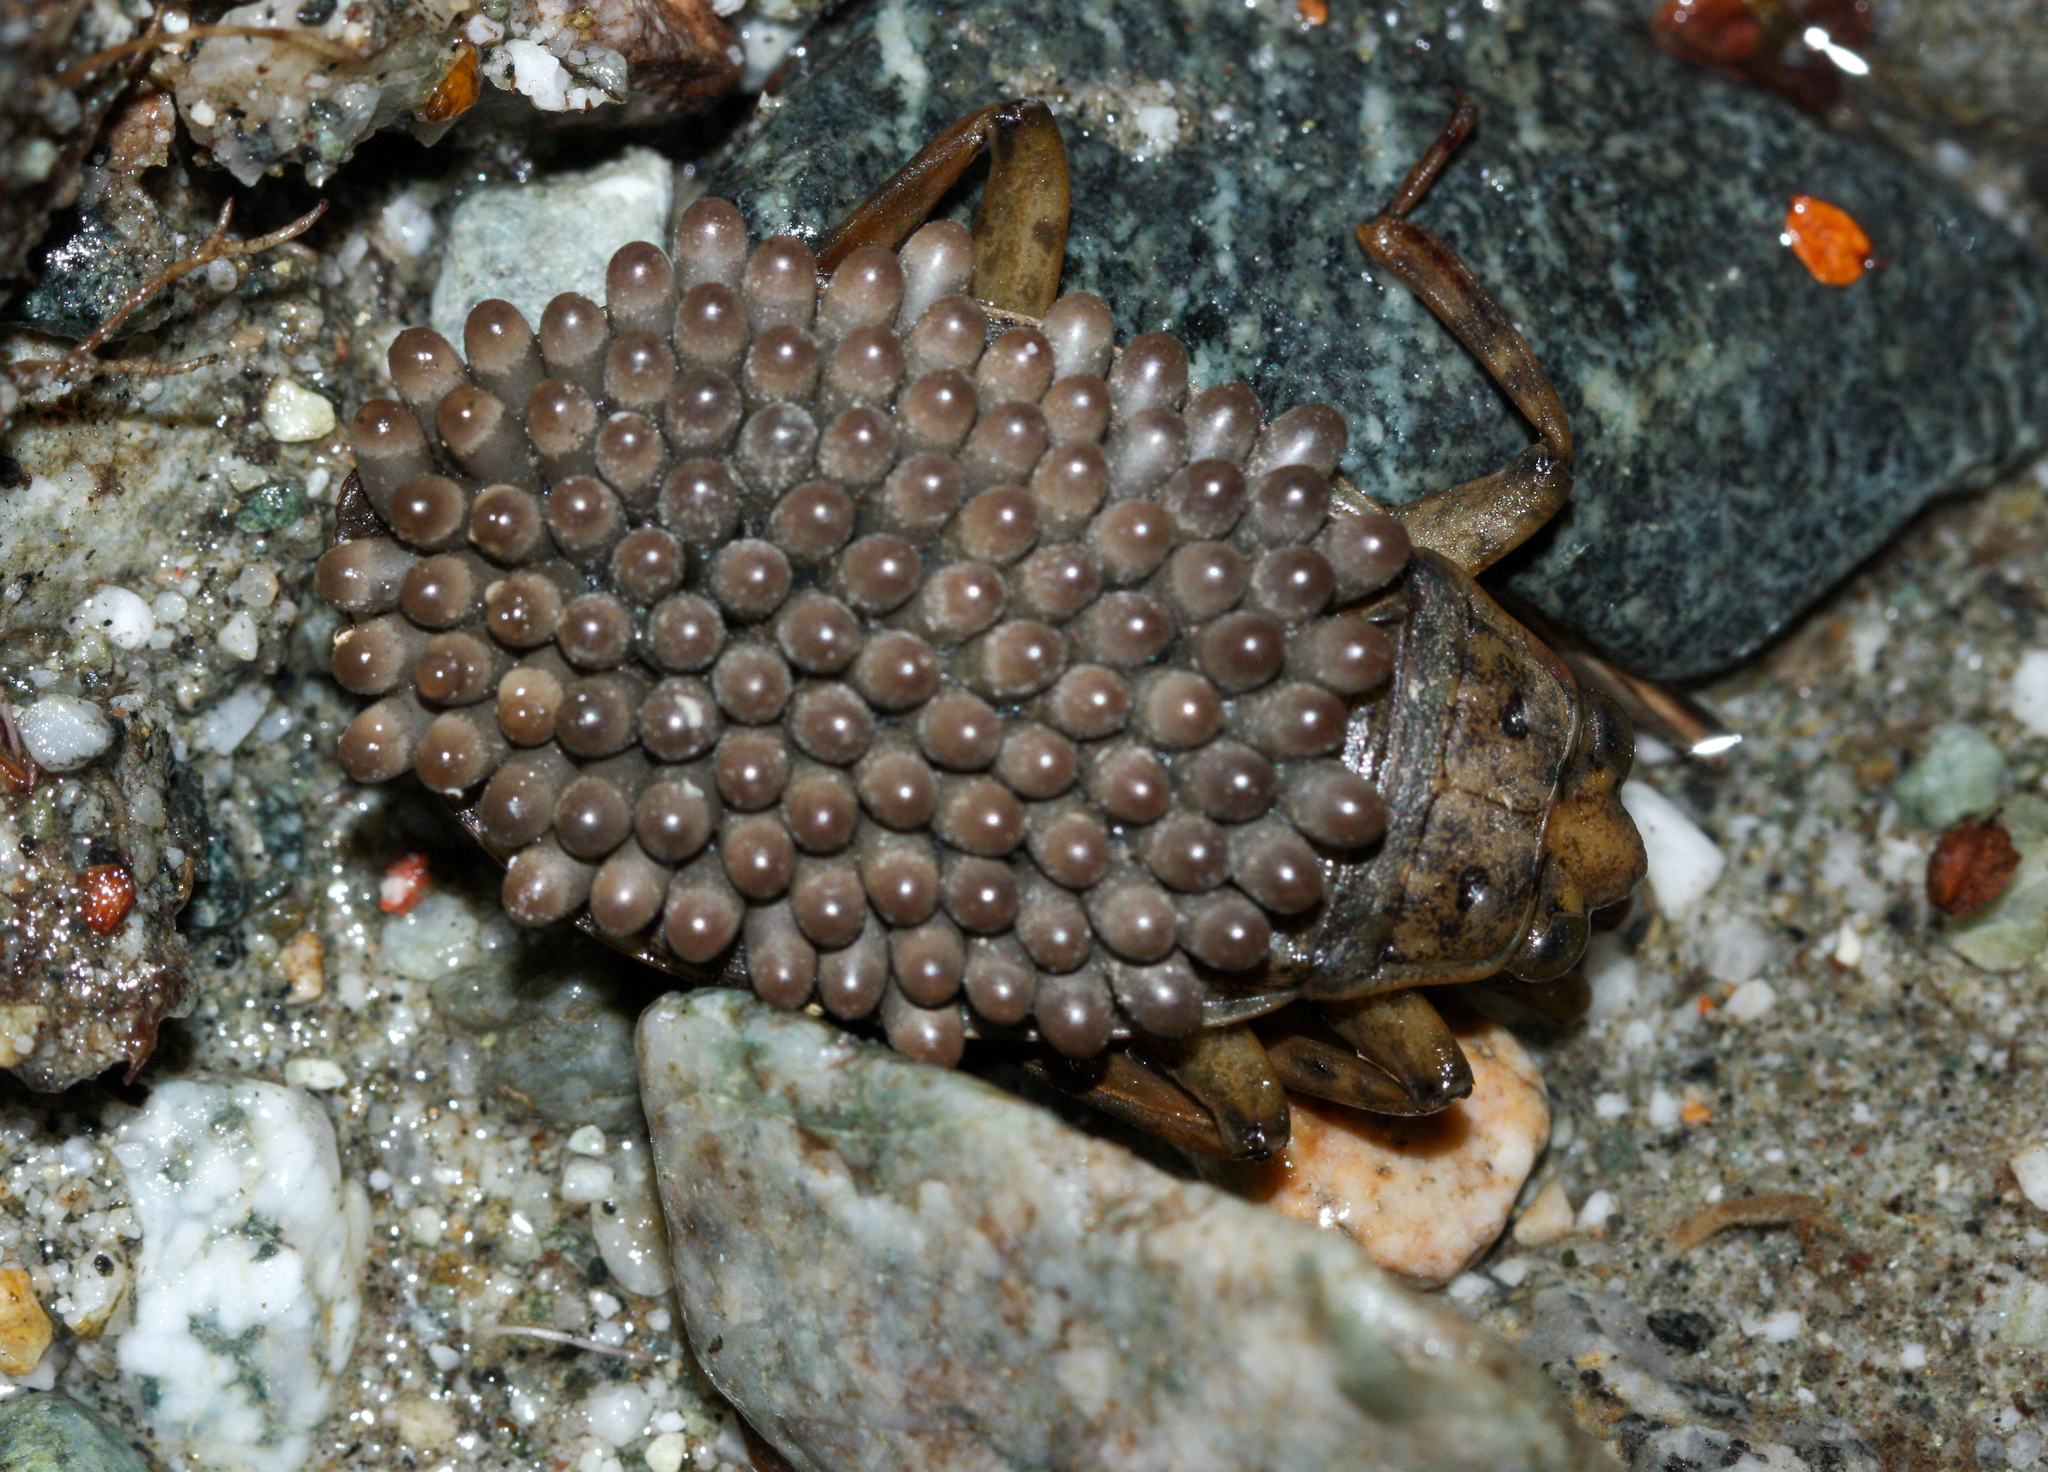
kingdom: Animalia
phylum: Arthropoda
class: Insecta
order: Hemiptera
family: Belostomatidae
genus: Abedus
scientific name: Abedus indentatus
